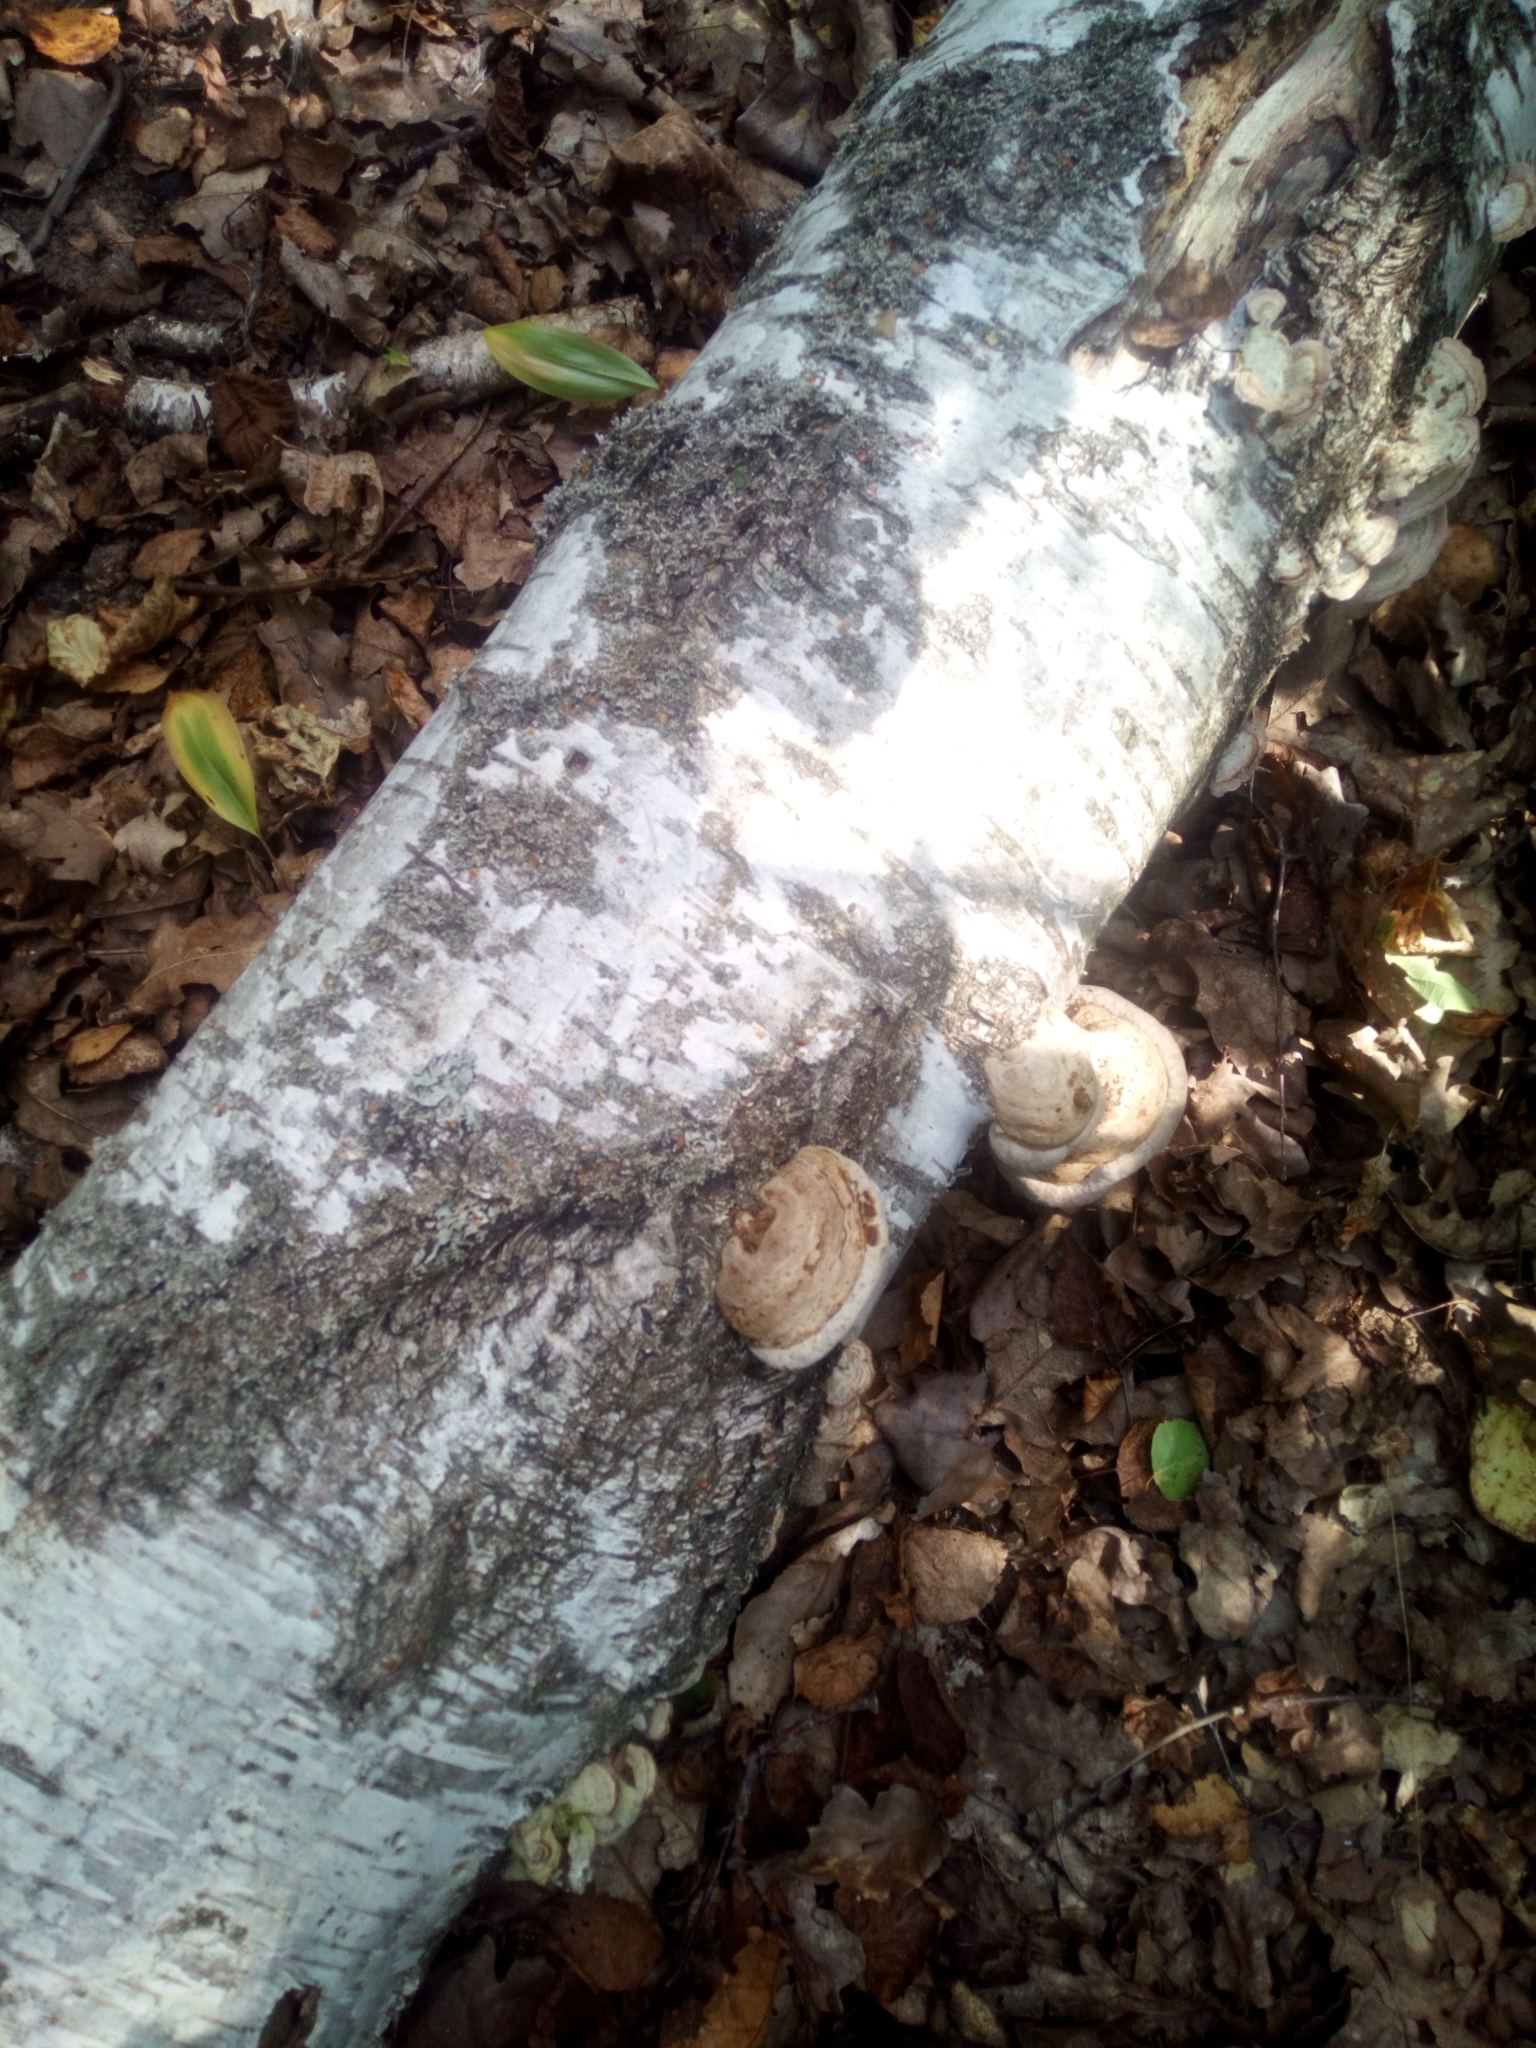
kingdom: Fungi
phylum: Basidiomycota
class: Agaricomycetes
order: Polyporales
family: Polyporaceae
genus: Fomes
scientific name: Fomes fomentarius
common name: Hoof fungus
